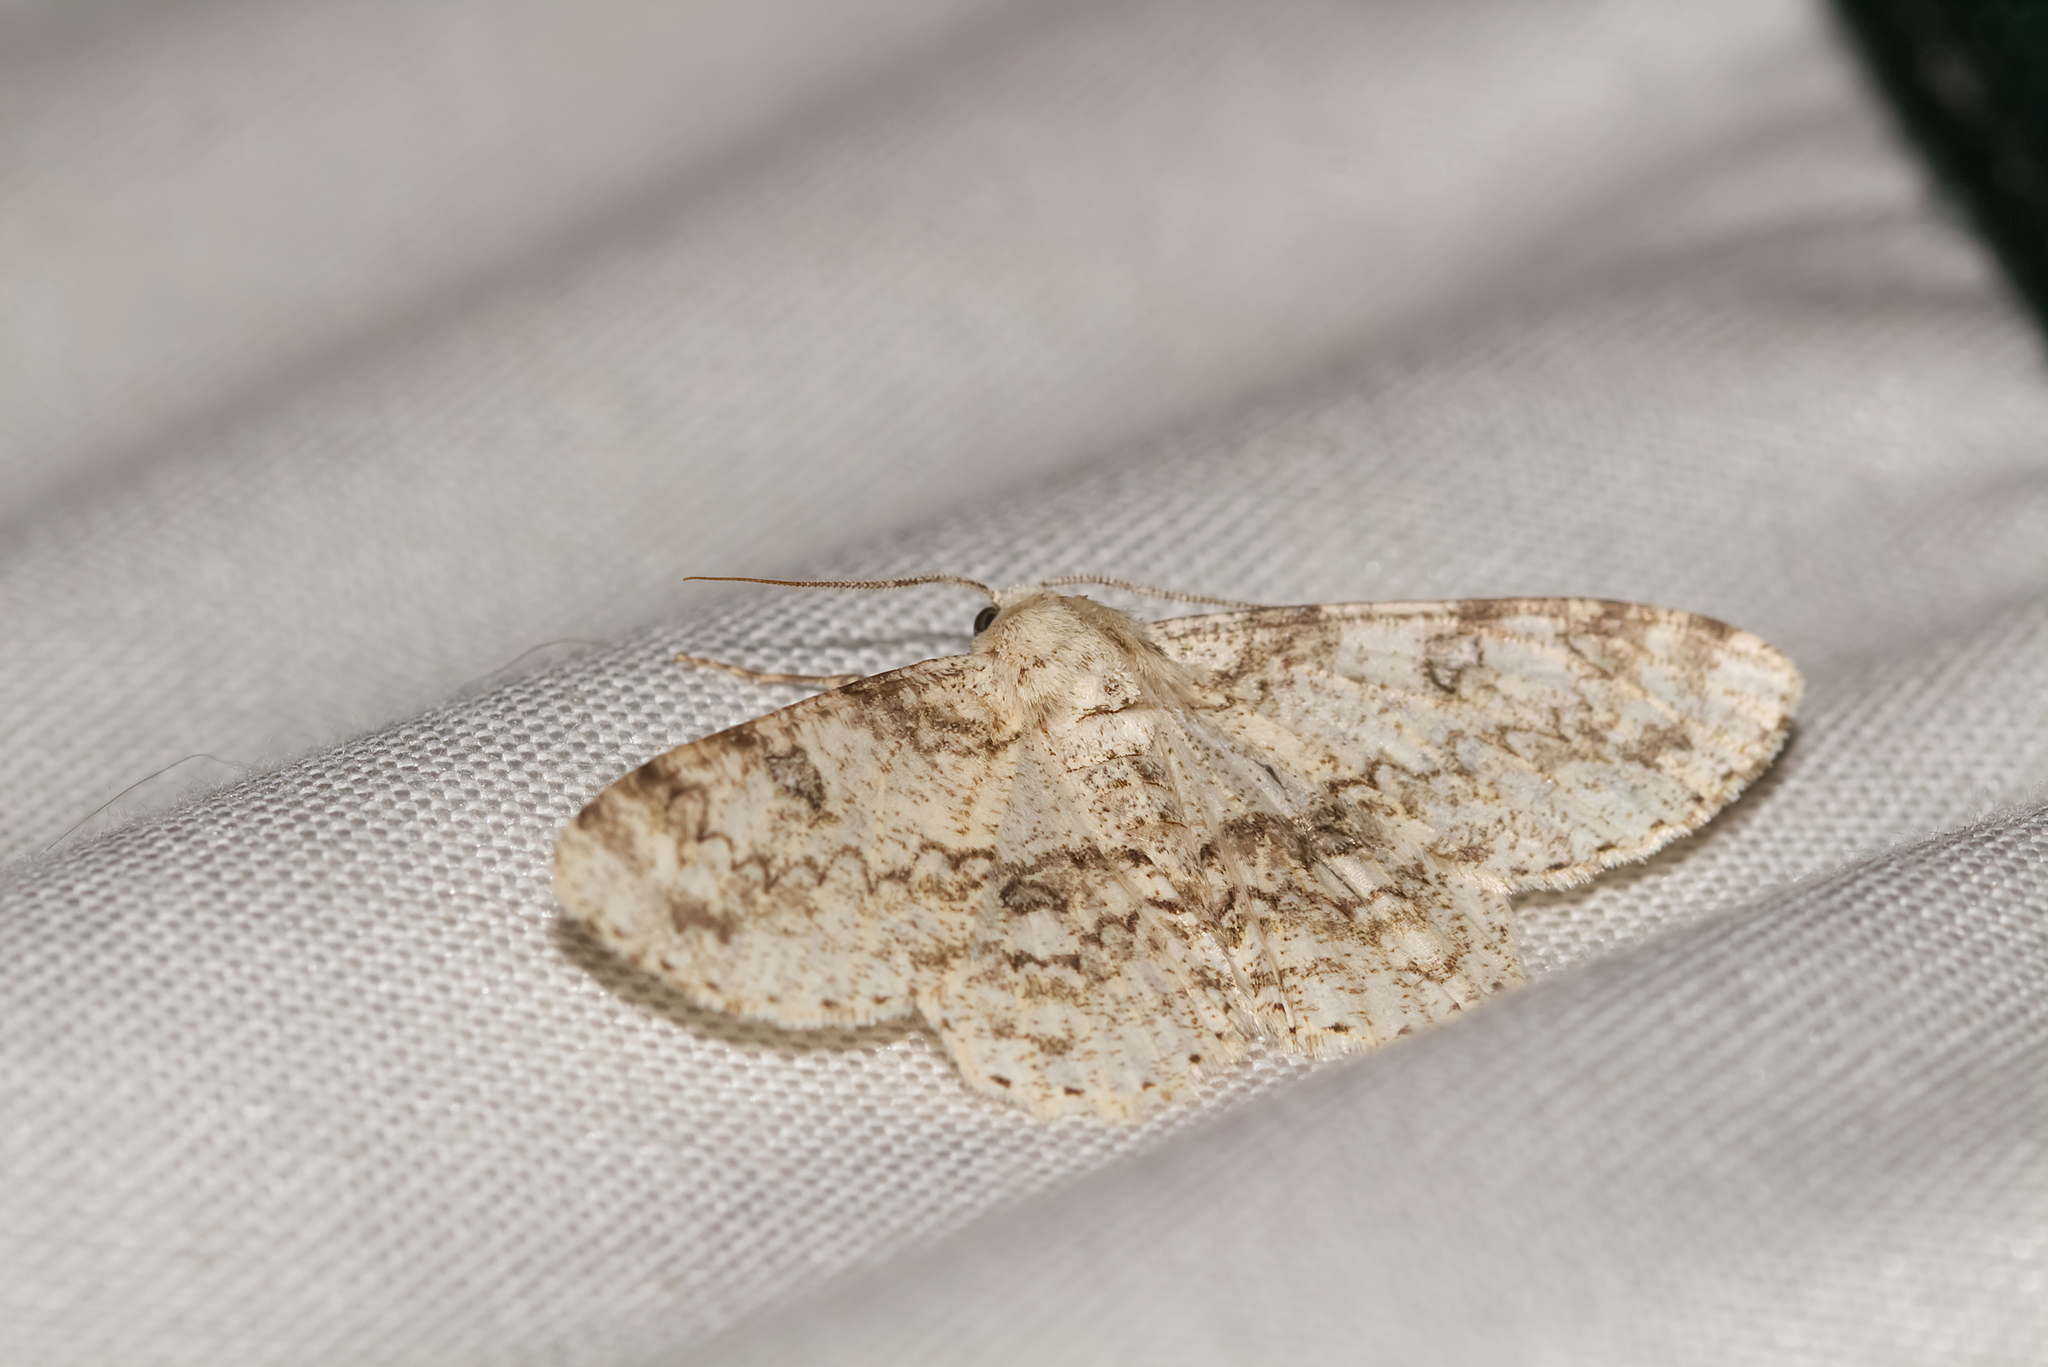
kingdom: Animalia
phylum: Arthropoda
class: Insecta
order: Lepidoptera
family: Geometridae
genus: Ascotis
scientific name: Ascotis selenaria
